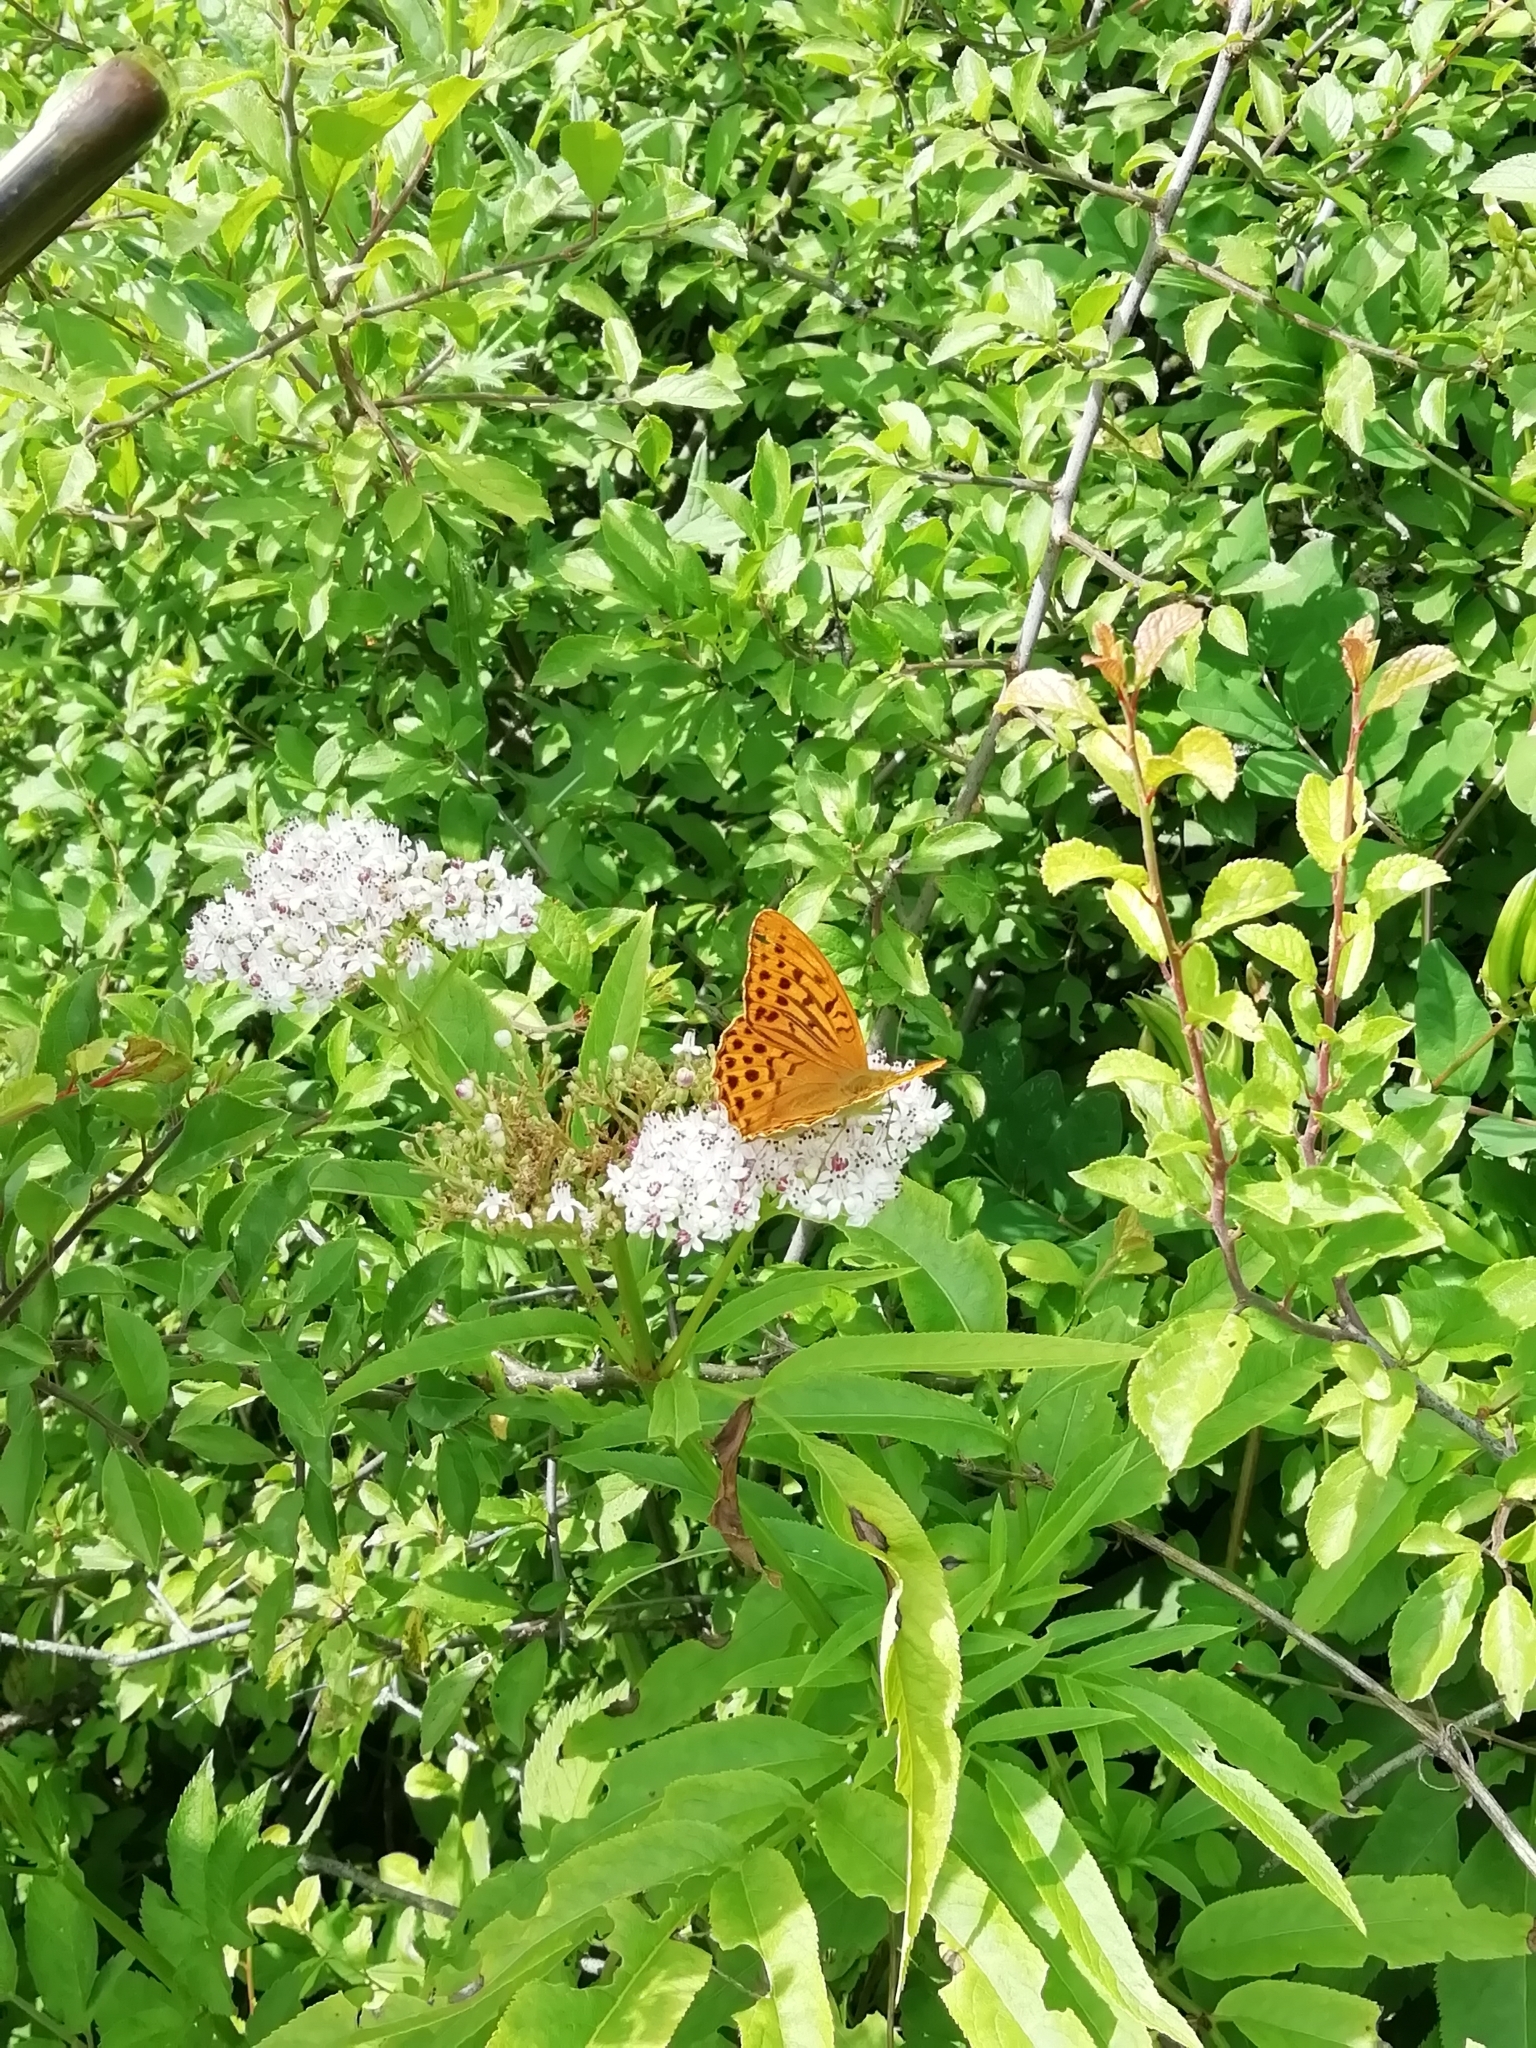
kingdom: Animalia
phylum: Arthropoda
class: Insecta
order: Lepidoptera
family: Nymphalidae
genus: Argynnis
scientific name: Argynnis paphia
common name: Silver-washed fritillary
